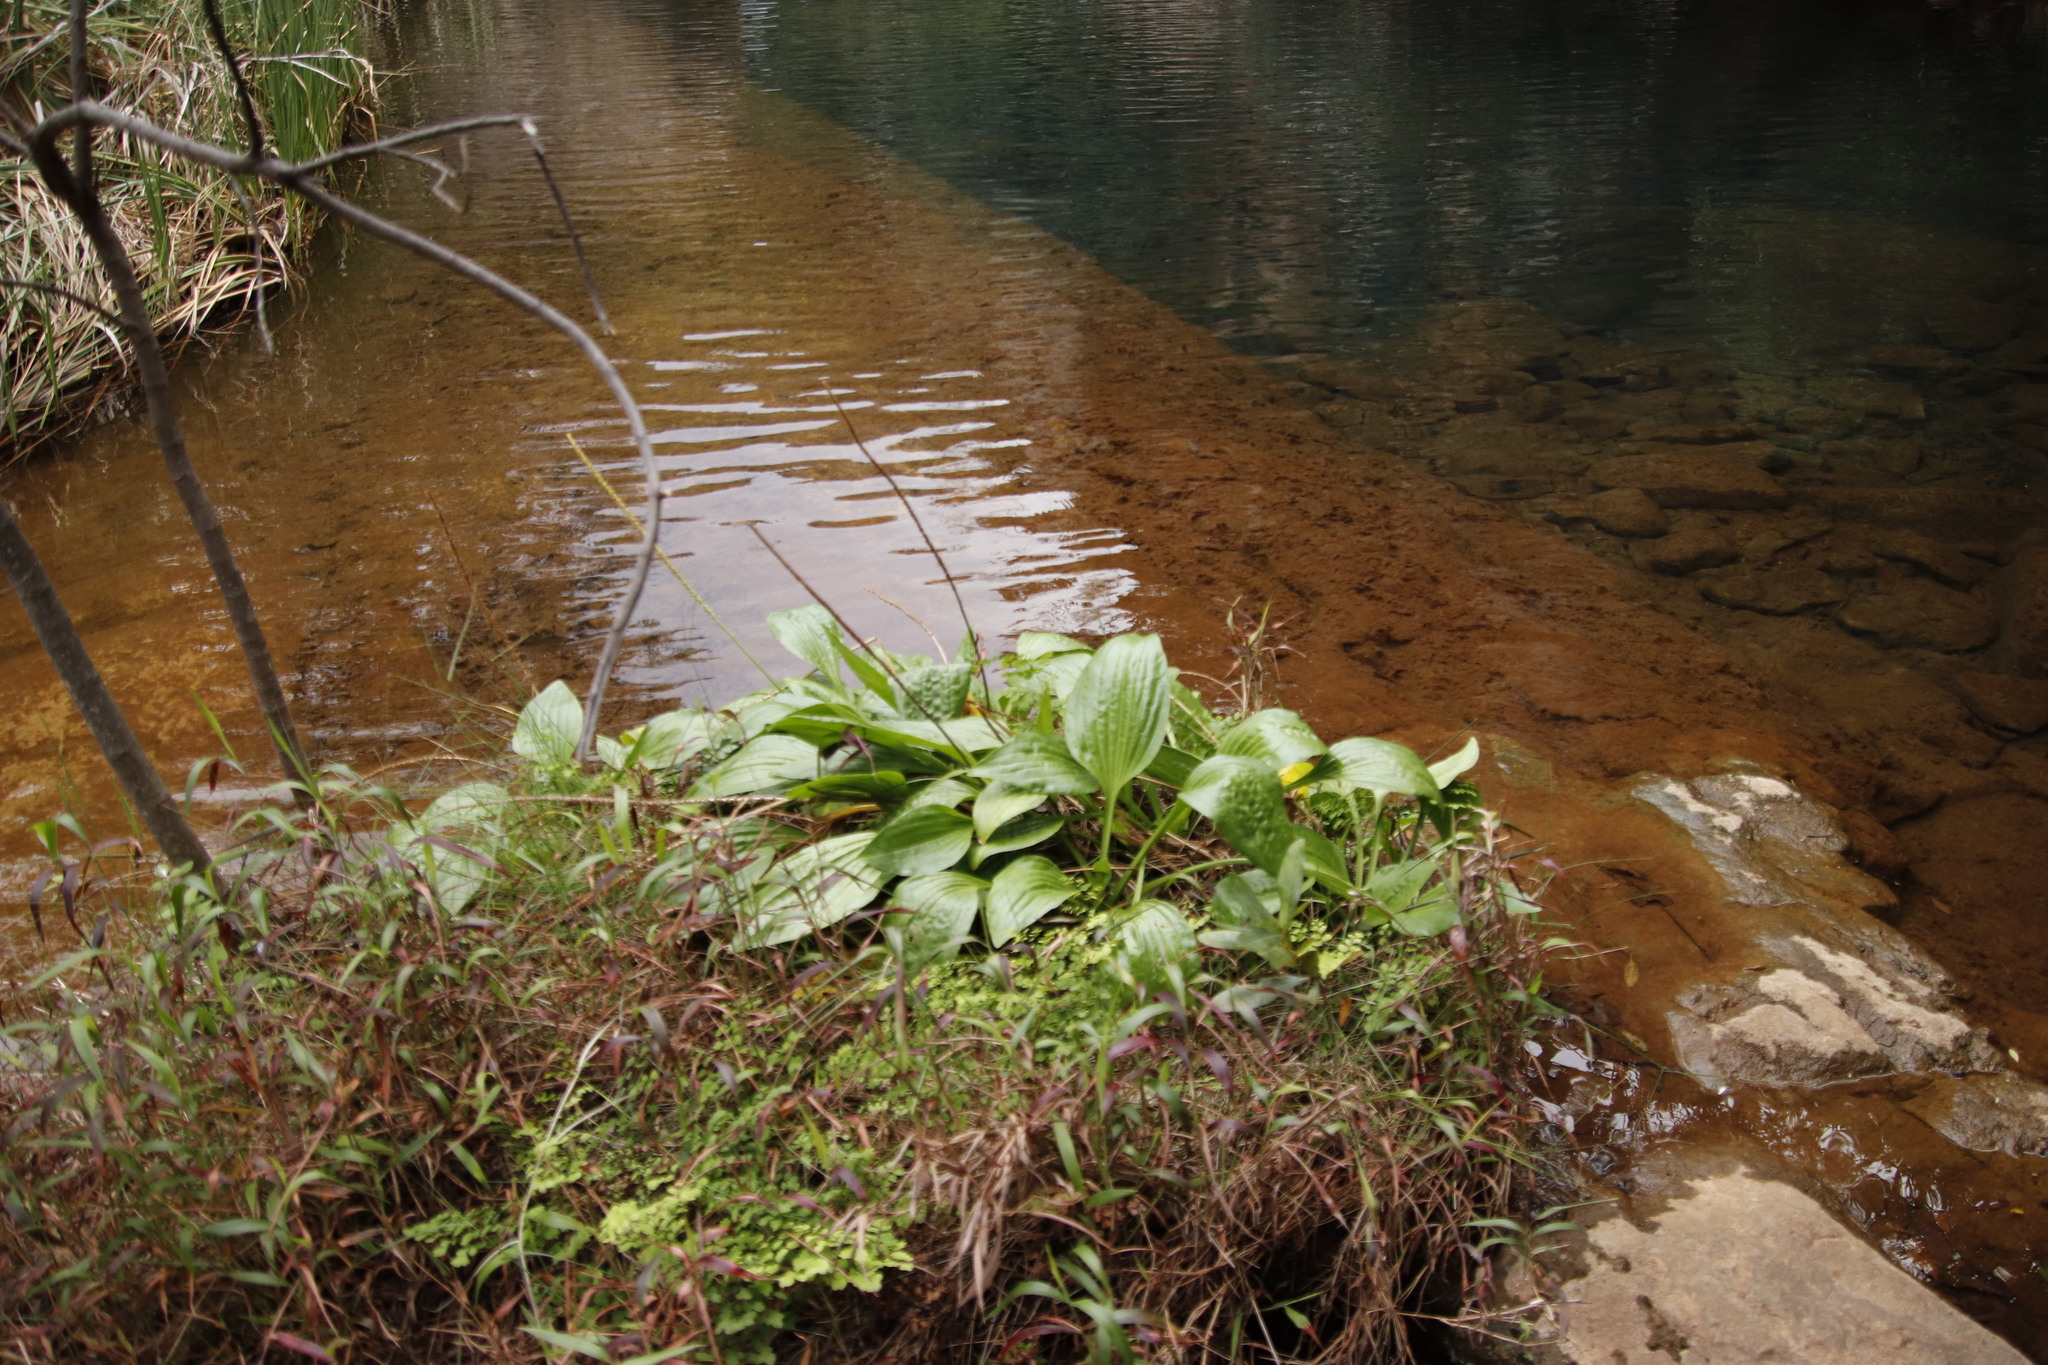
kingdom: Plantae
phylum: Tracheophyta
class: Magnoliopsida
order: Lamiales
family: Plantaginaceae
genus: Plantago
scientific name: Plantago major
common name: Common plantain
